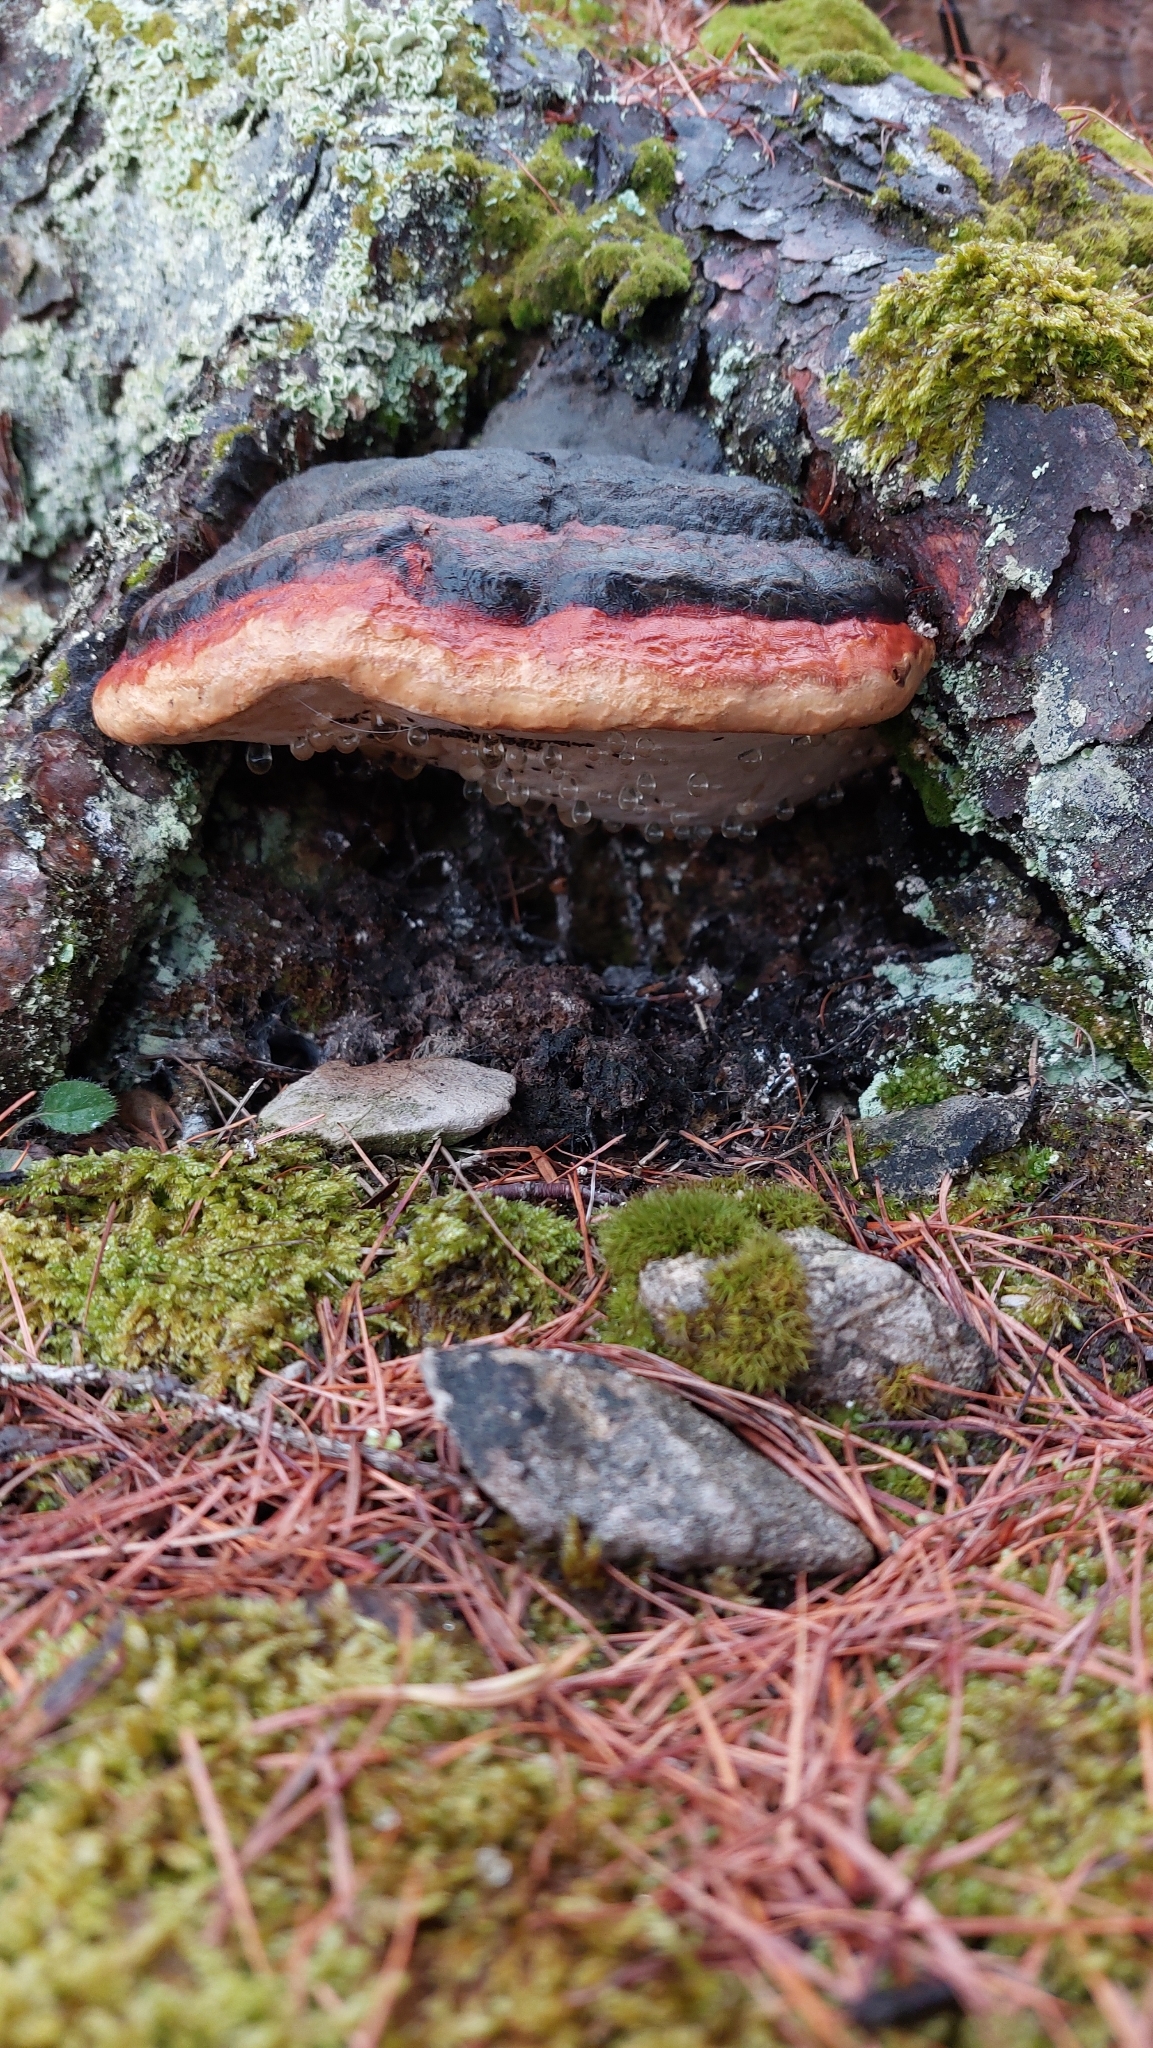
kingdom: Fungi
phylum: Basidiomycota
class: Agaricomycetes
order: Polyporales
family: Fomitopsidaceae
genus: Fomitopsis
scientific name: Fomitopsis pinicola
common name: Red-belted bracket
